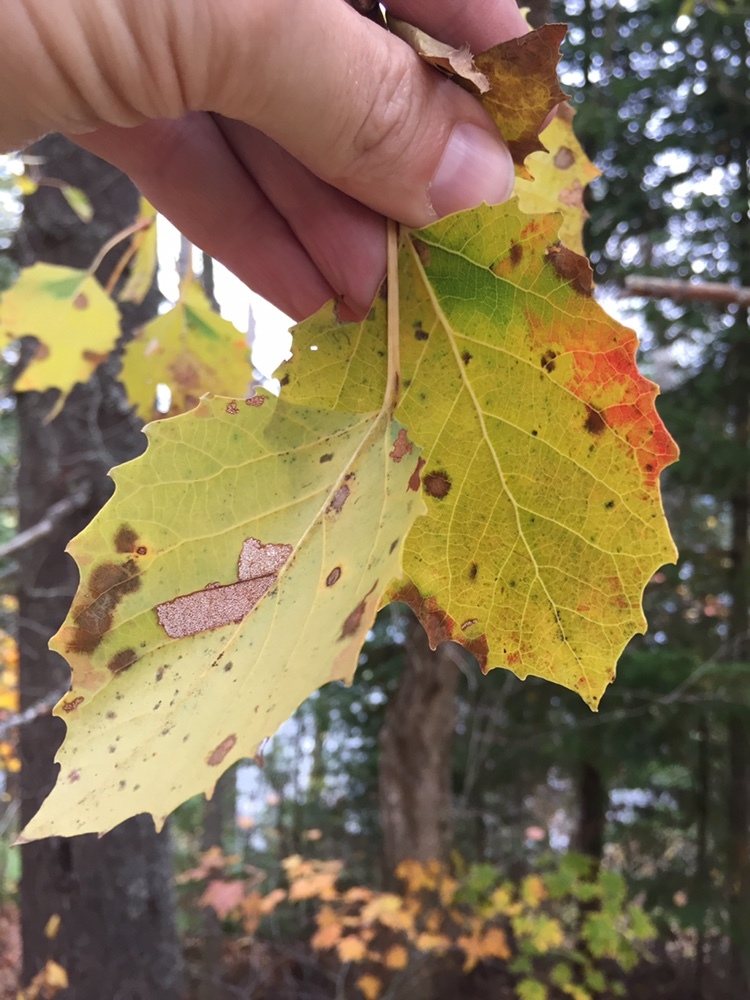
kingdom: Plantae
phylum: Tracheophyta
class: Magnoliopsida
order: Malpighiales
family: Salicaceae
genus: Populus
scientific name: Populus grandidentata
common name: Bigtooth aspen
